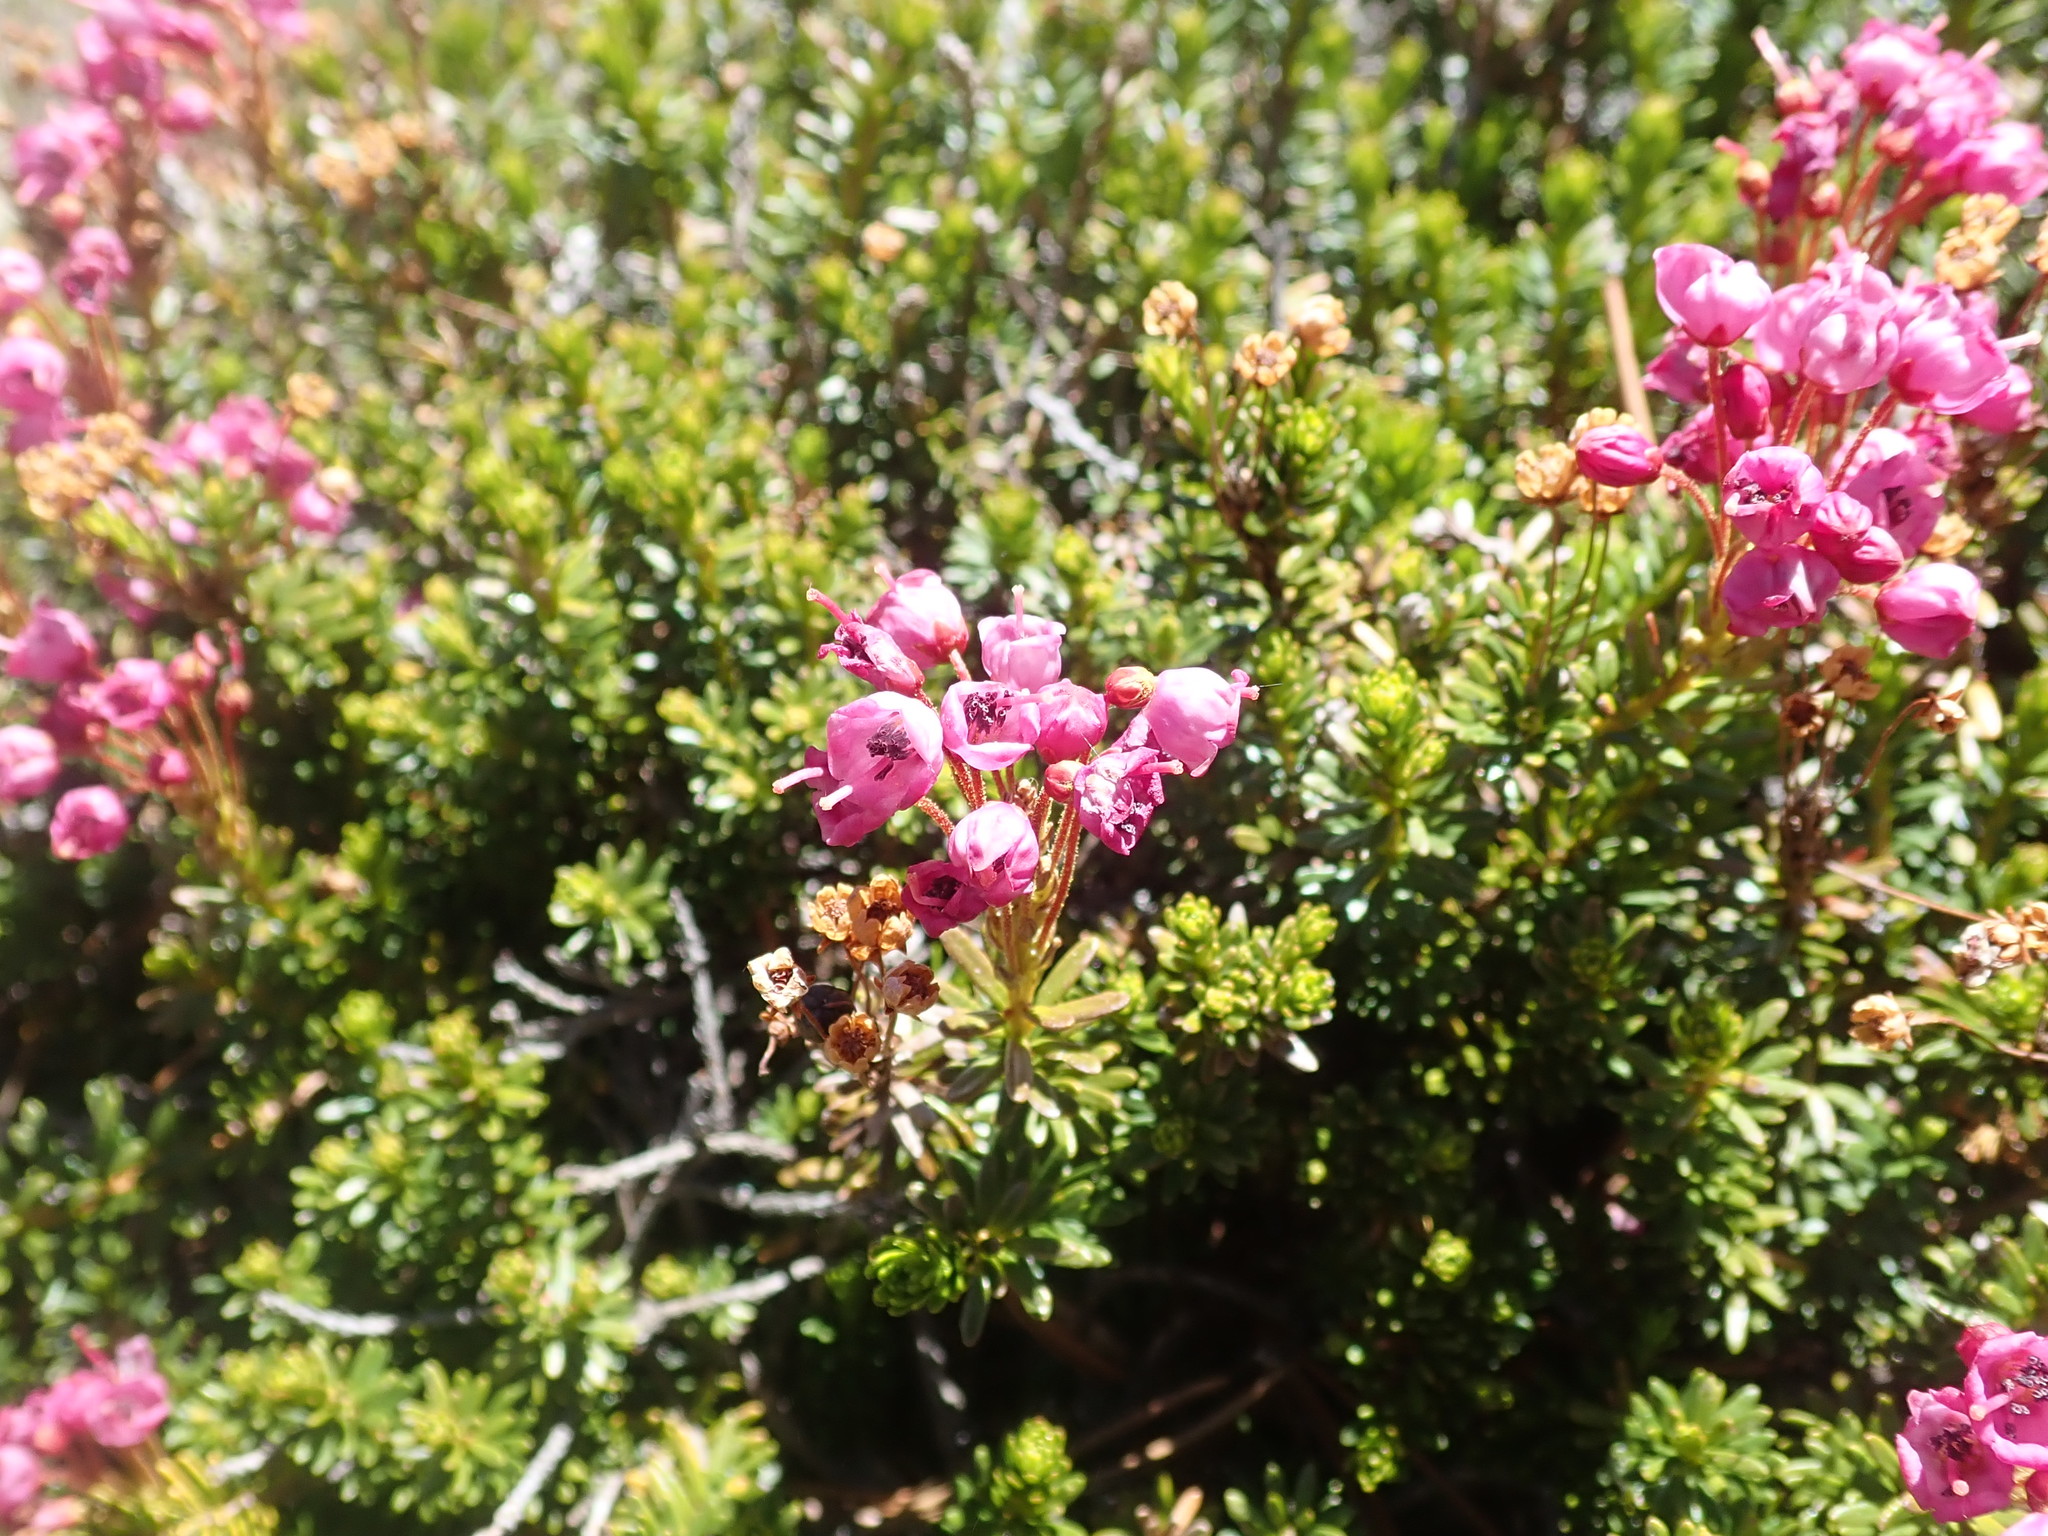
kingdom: Plantae
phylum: Tracheophyta
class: Magnoliopsida
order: Ericales
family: Ericaceae
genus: Phyllodoce
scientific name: Phyllodoce empetriformis
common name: Pink mountain heather
